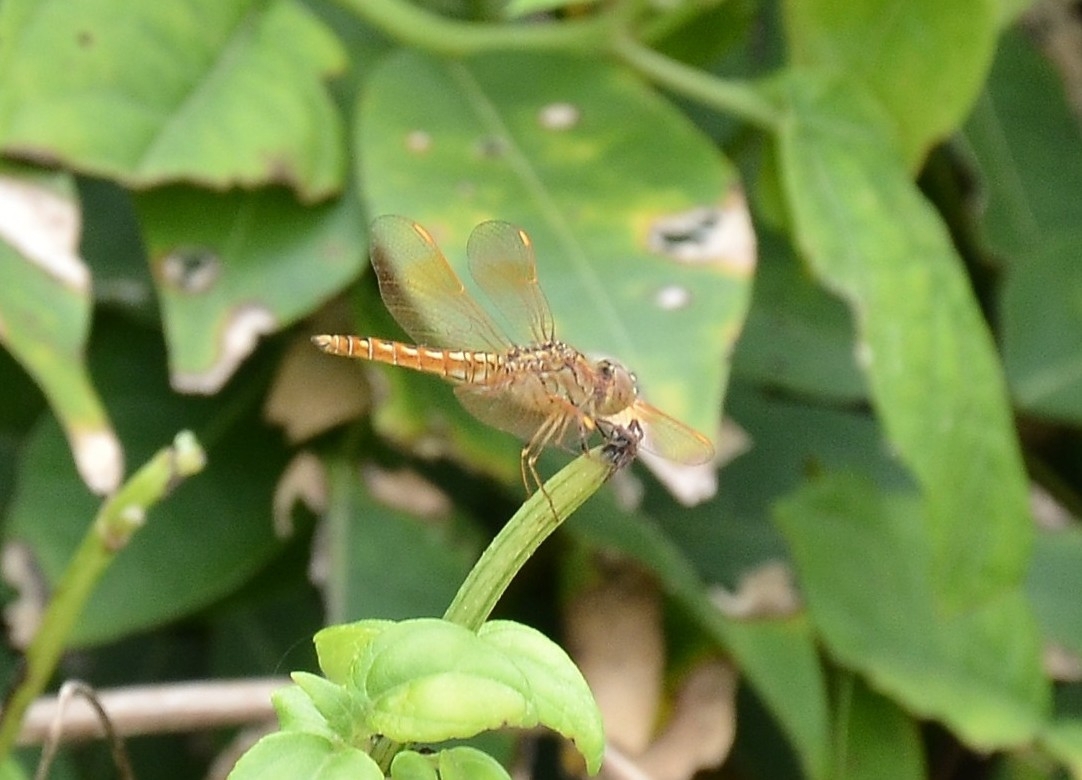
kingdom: Animalia
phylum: Arthropoda
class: Insecta
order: Odonata
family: Libellulidae
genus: Brachythemis
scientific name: Brachythemis contaminata
